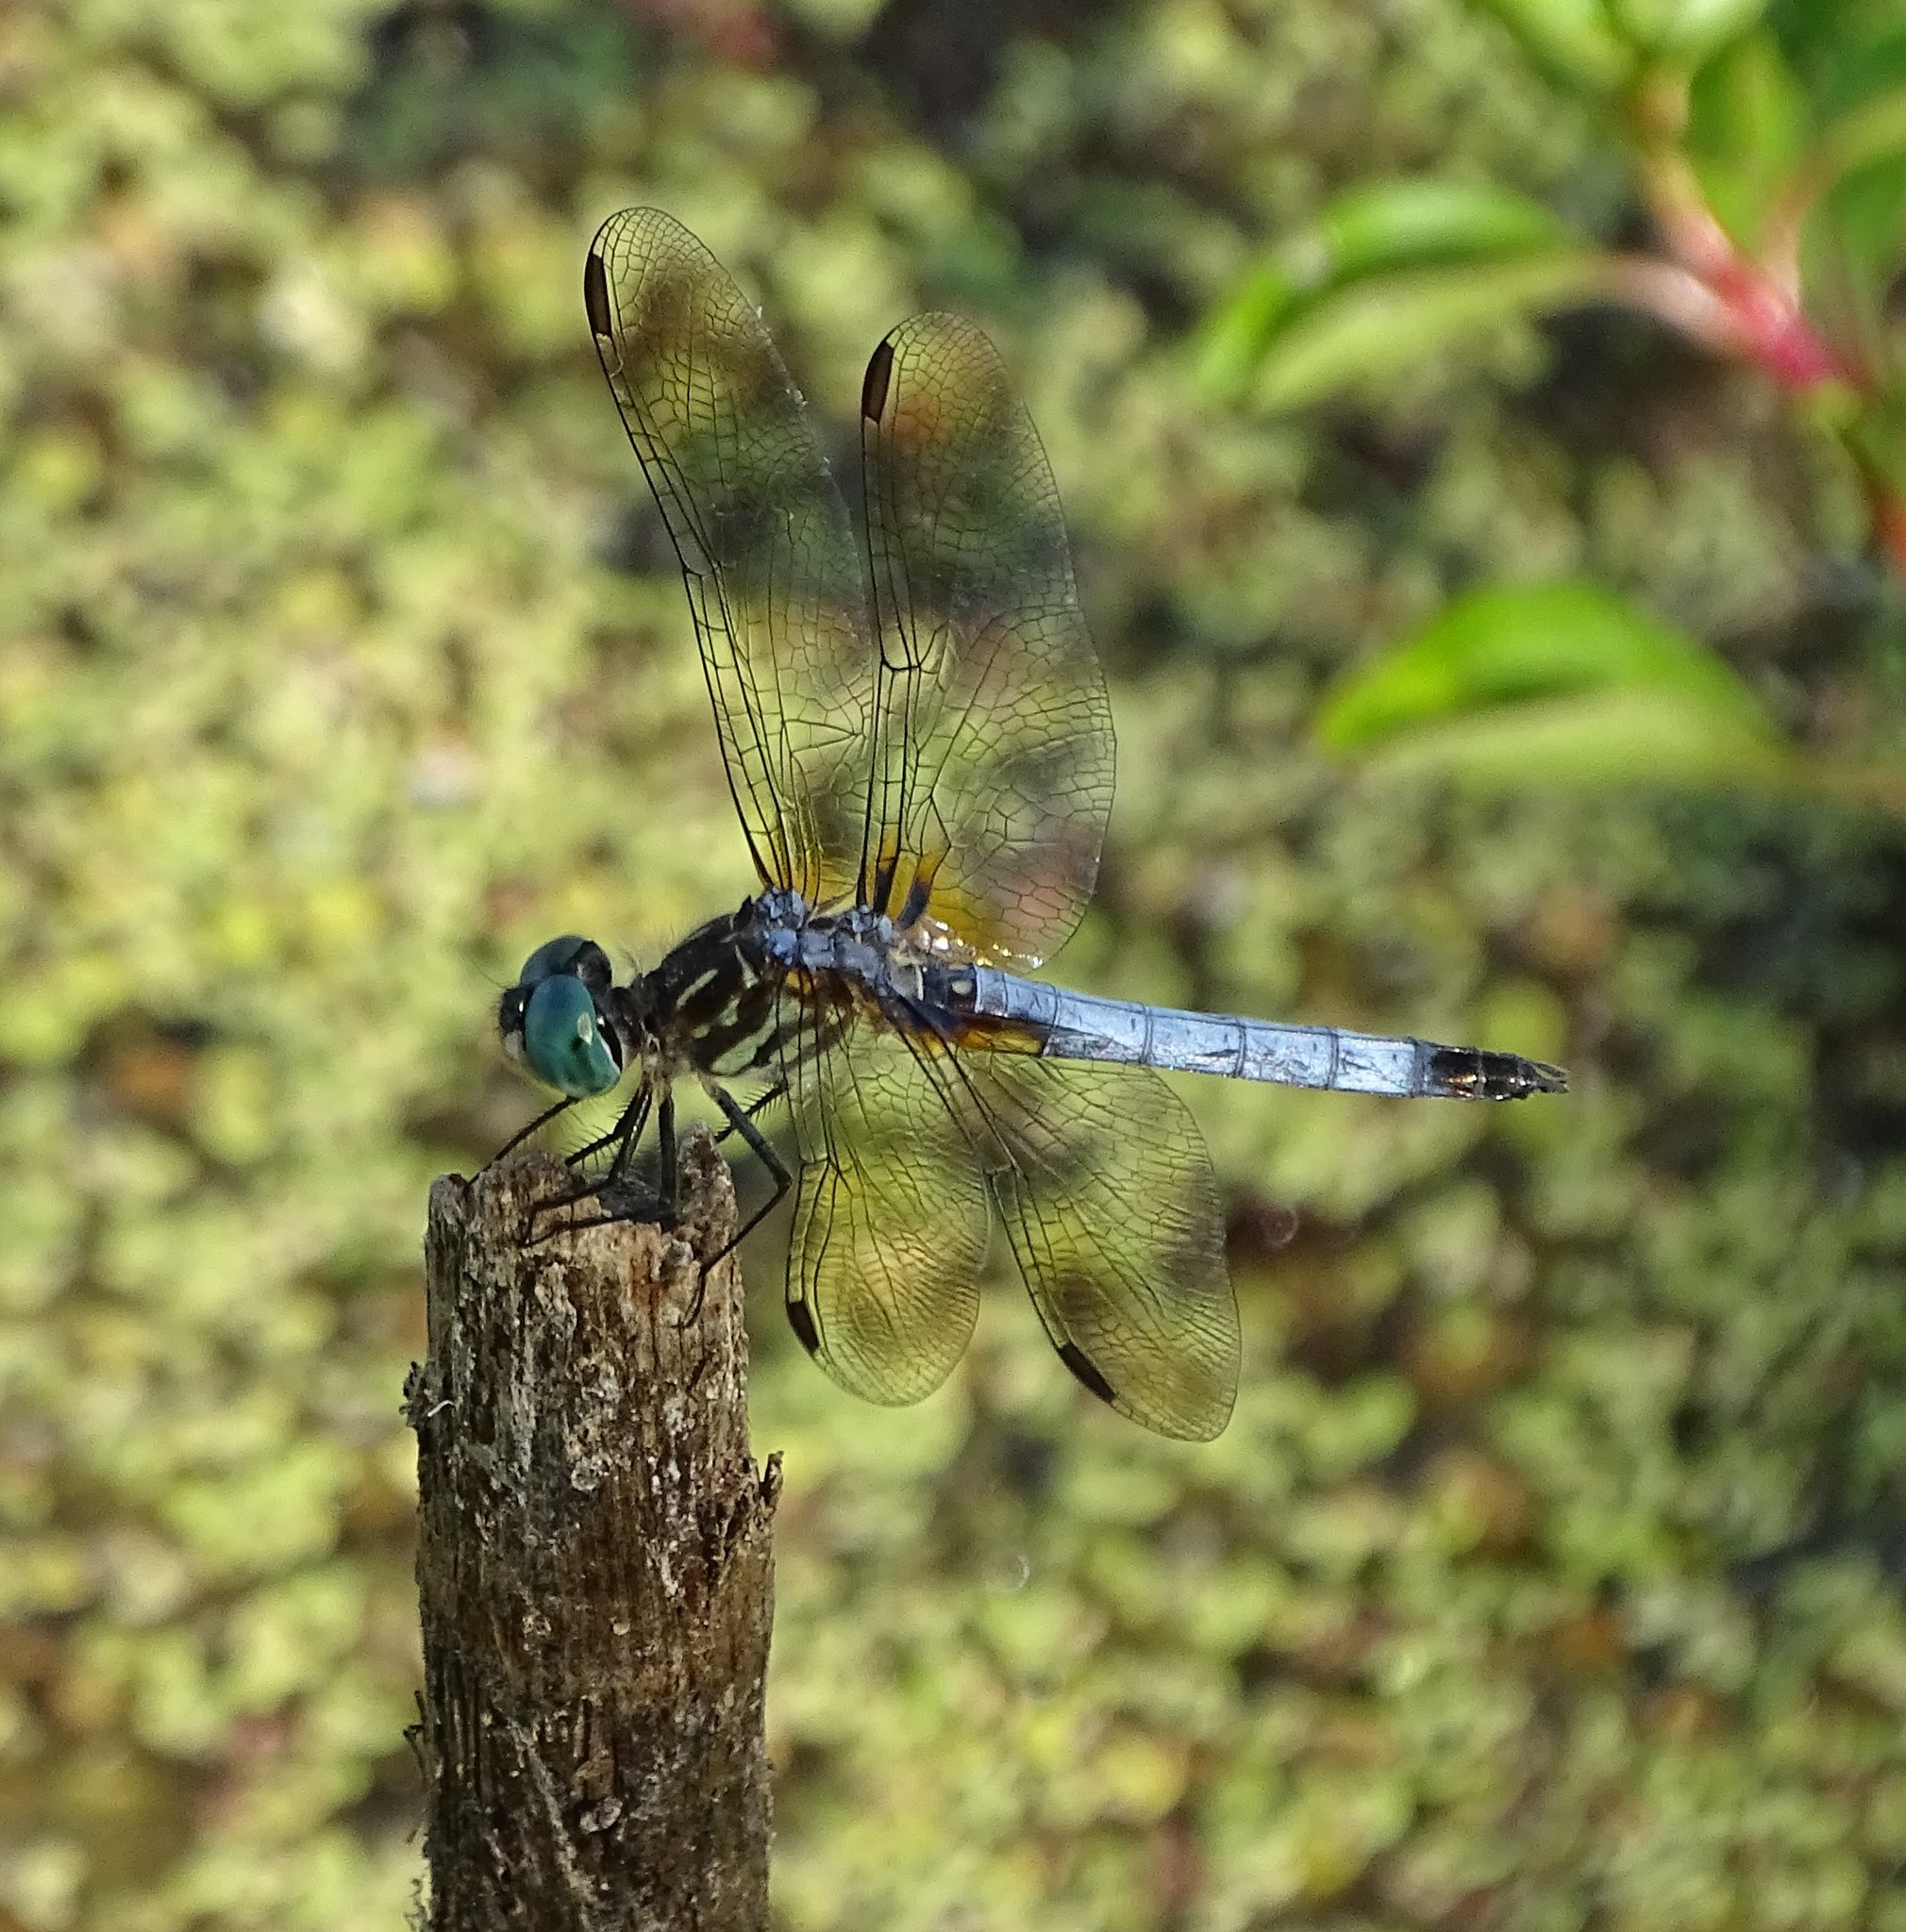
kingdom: Animalia
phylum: Arthropoda
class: Insecta
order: Odonata
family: Libellulidae
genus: Pachydiplax
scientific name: Pachydiplax longipennis
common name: Blue dasher
